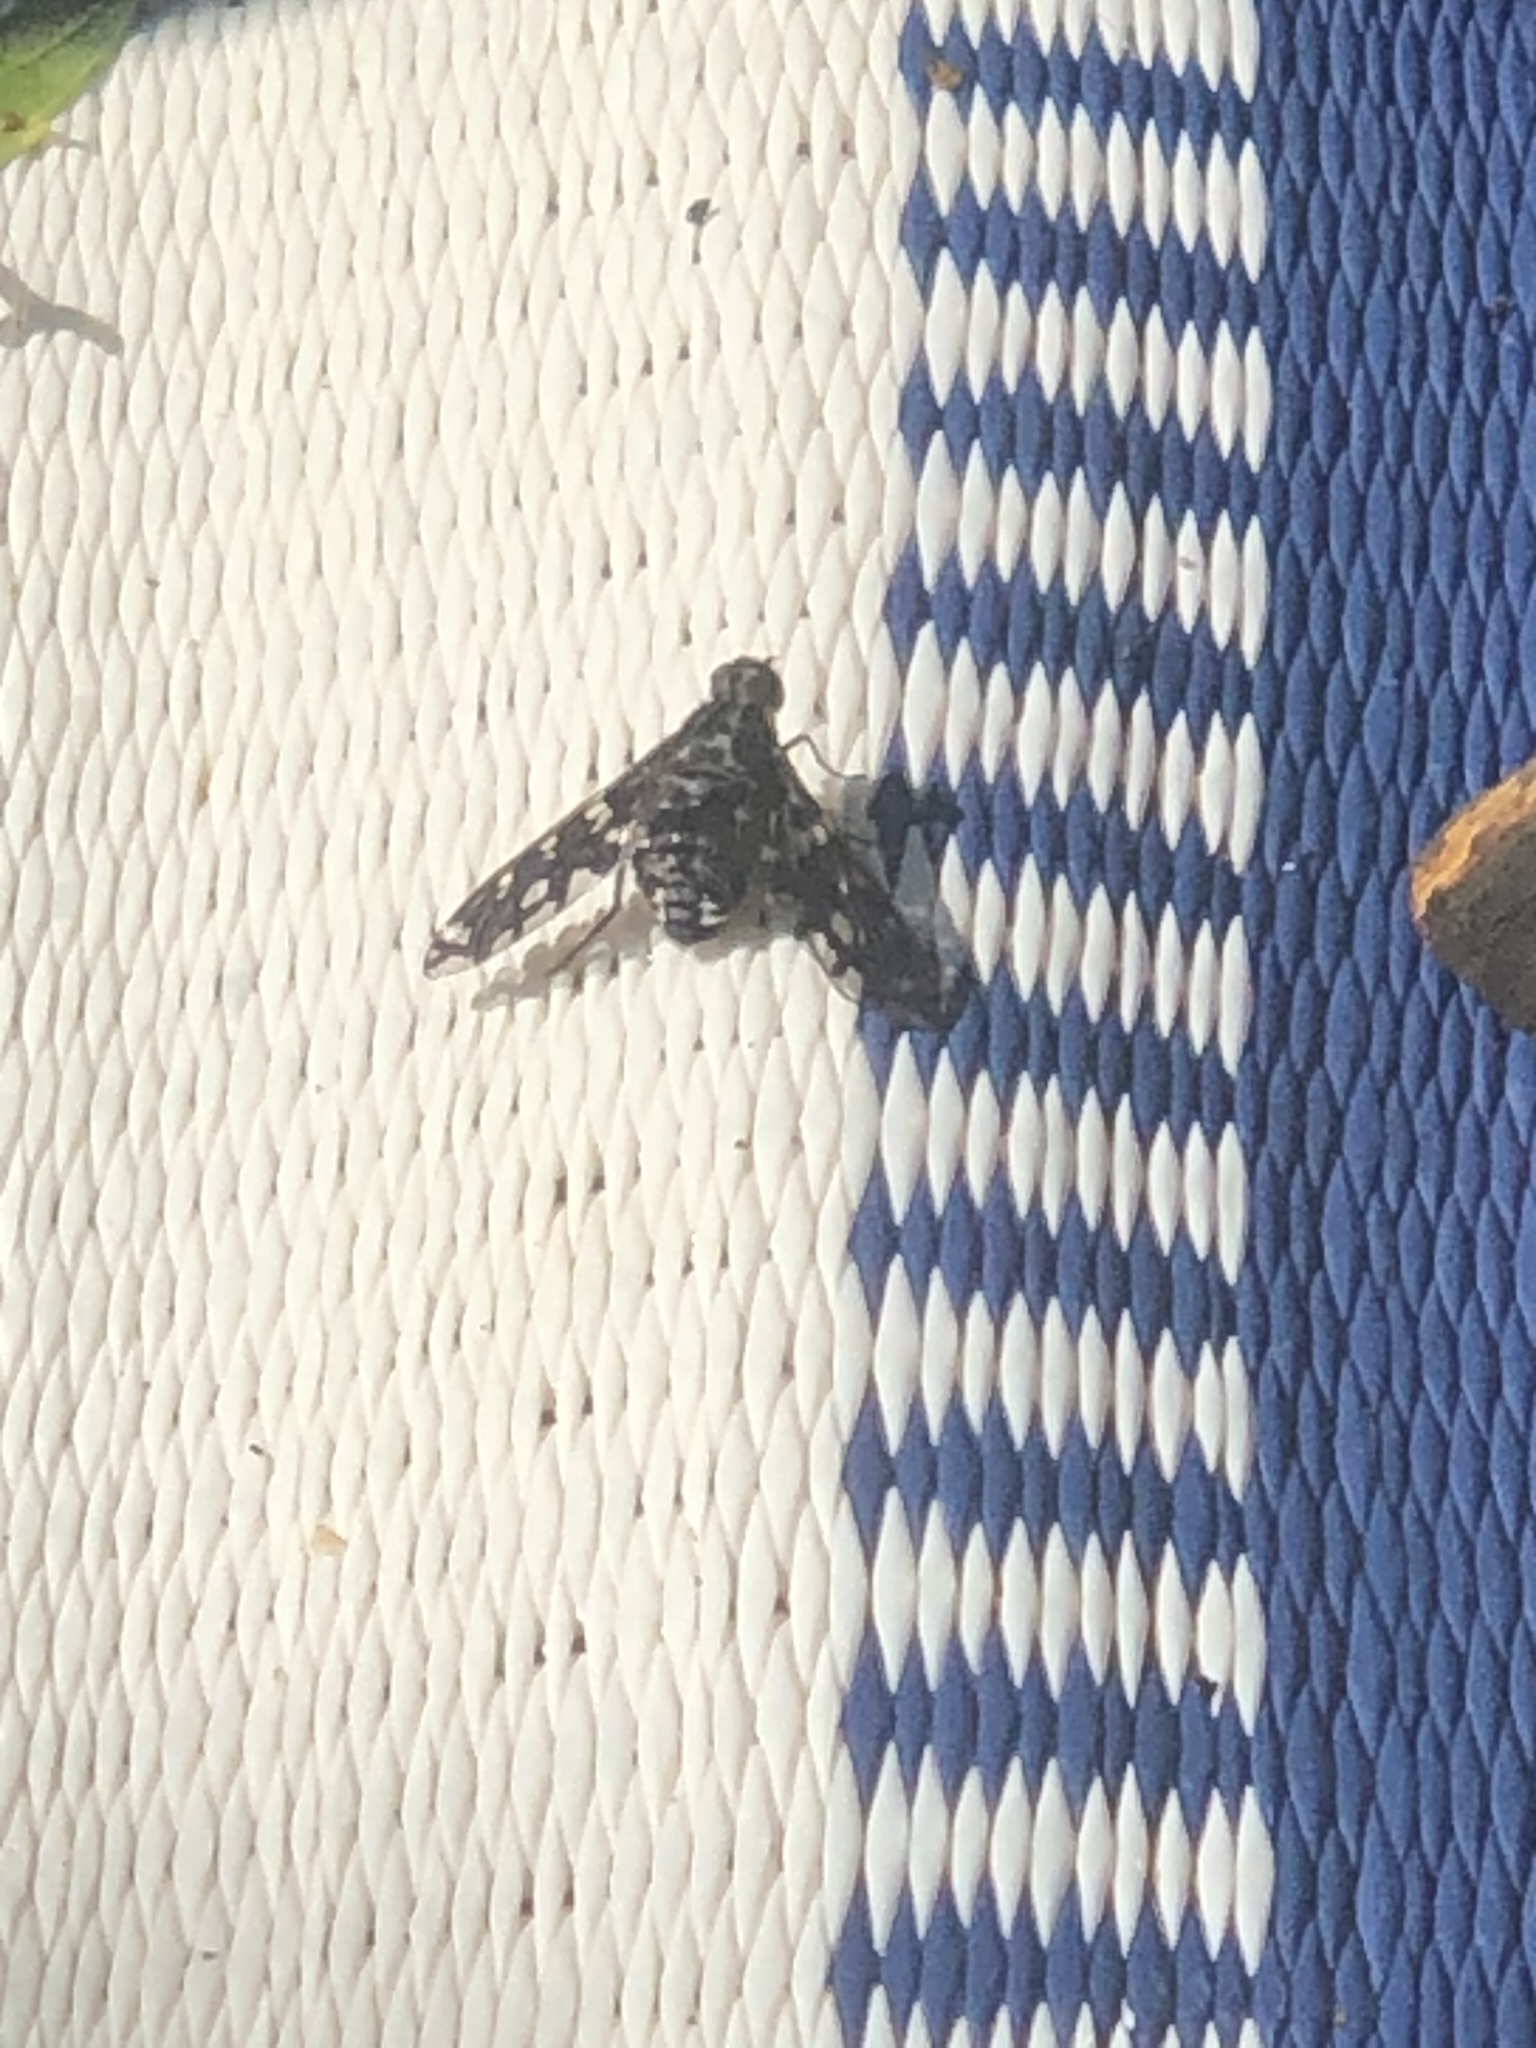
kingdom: Animalia
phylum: Arthropoda
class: Insecta
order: Diptera
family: Bombyliidae
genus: Xenox
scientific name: Xenox tigrinus
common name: Tiger bee fly
